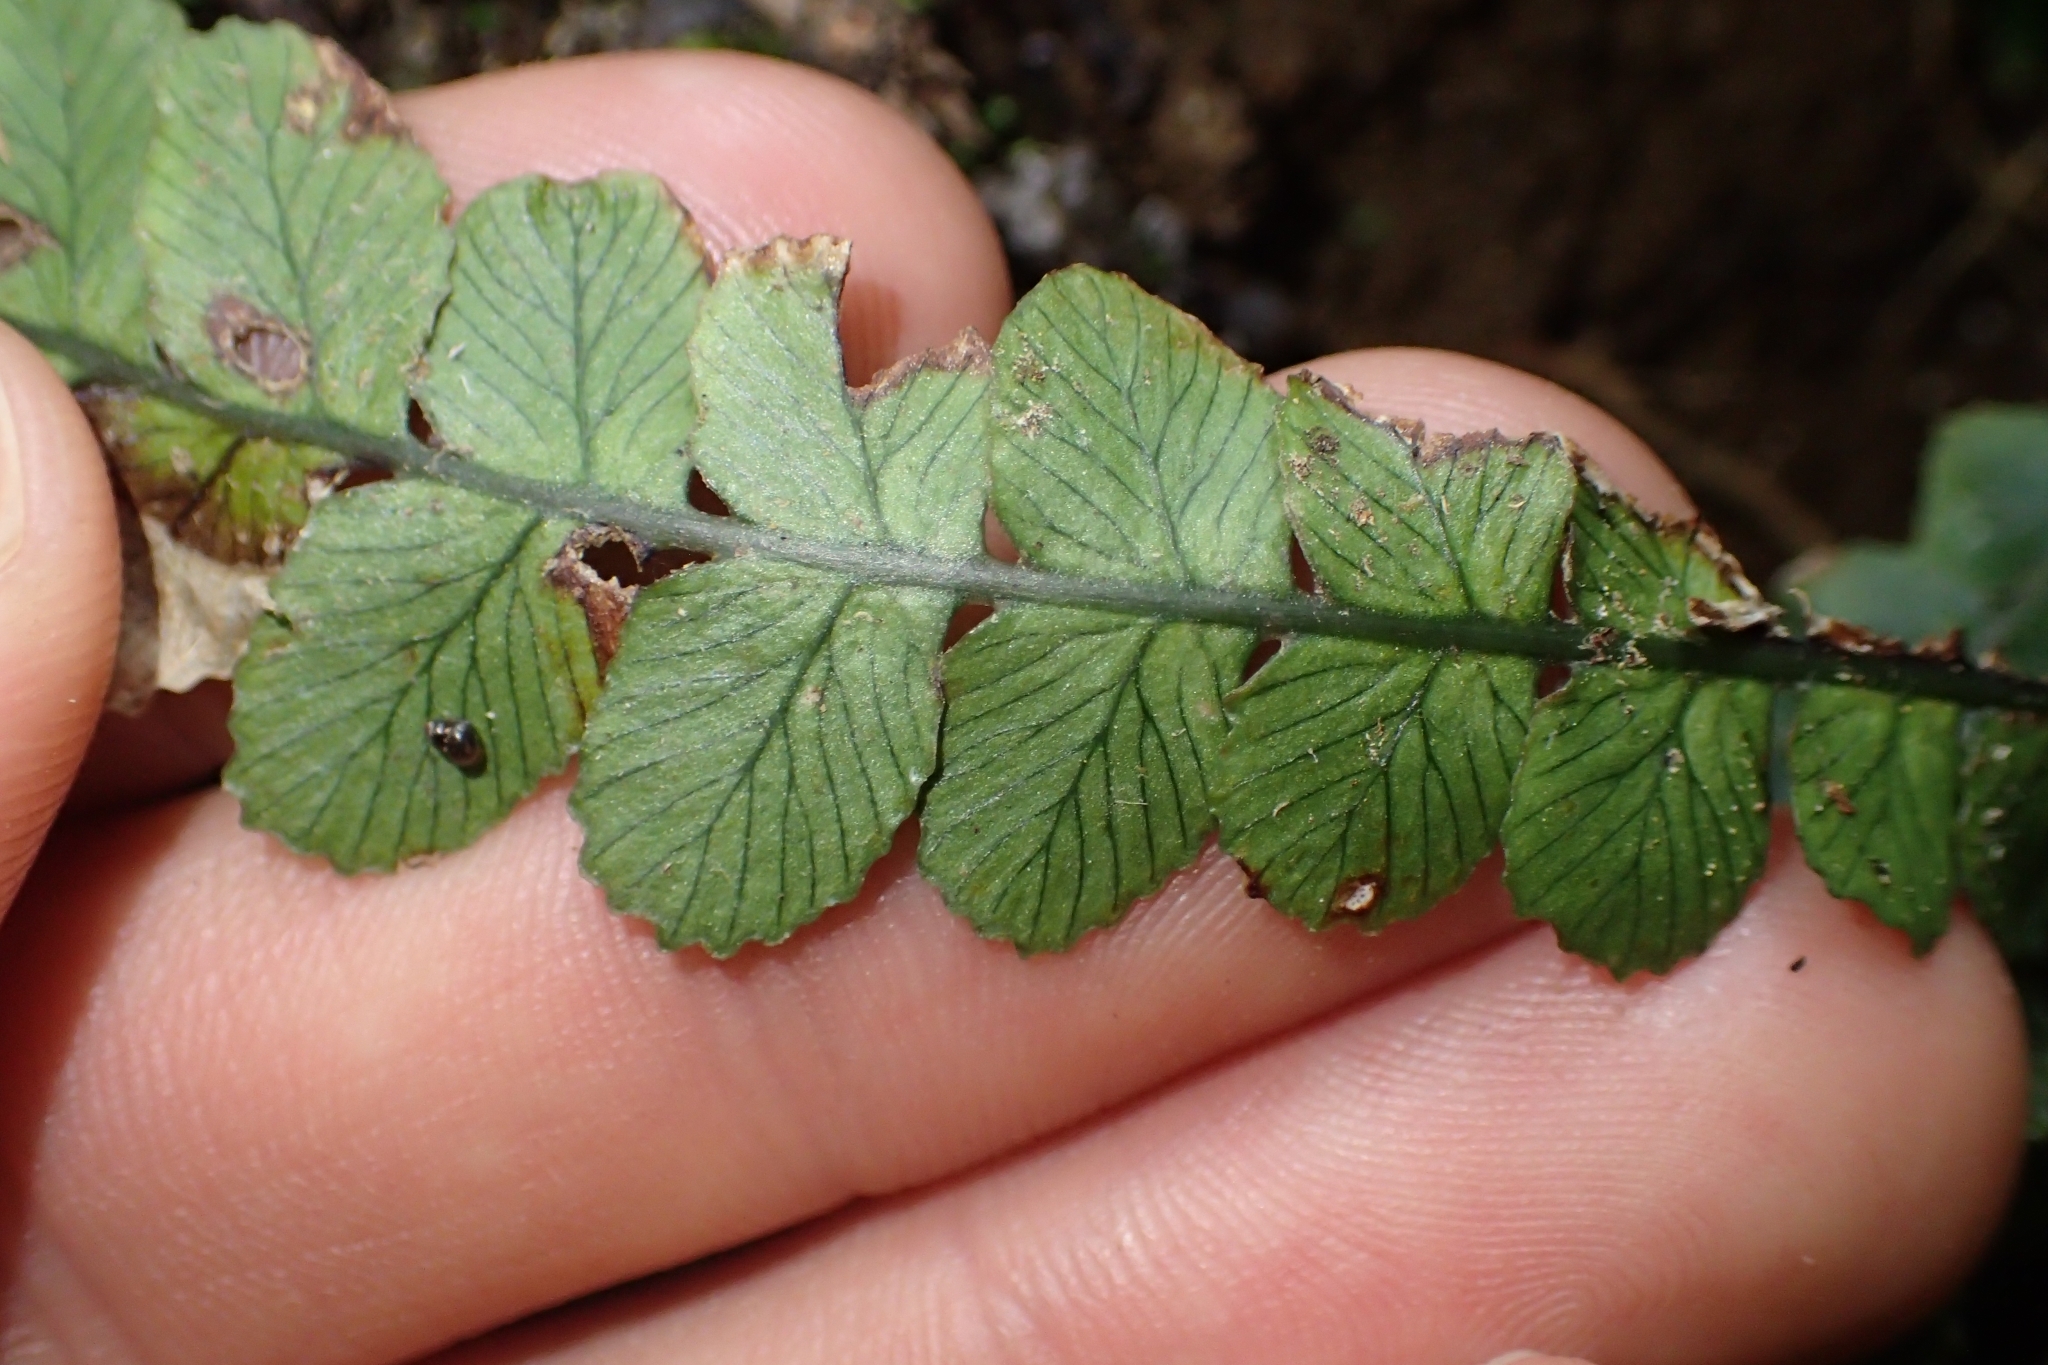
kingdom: Plantae
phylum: Tracheophyta
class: Polypodiopsida
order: Polypodiales
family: Blechnaceae
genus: Austroblechnum
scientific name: Austroblechnum membranaceum
